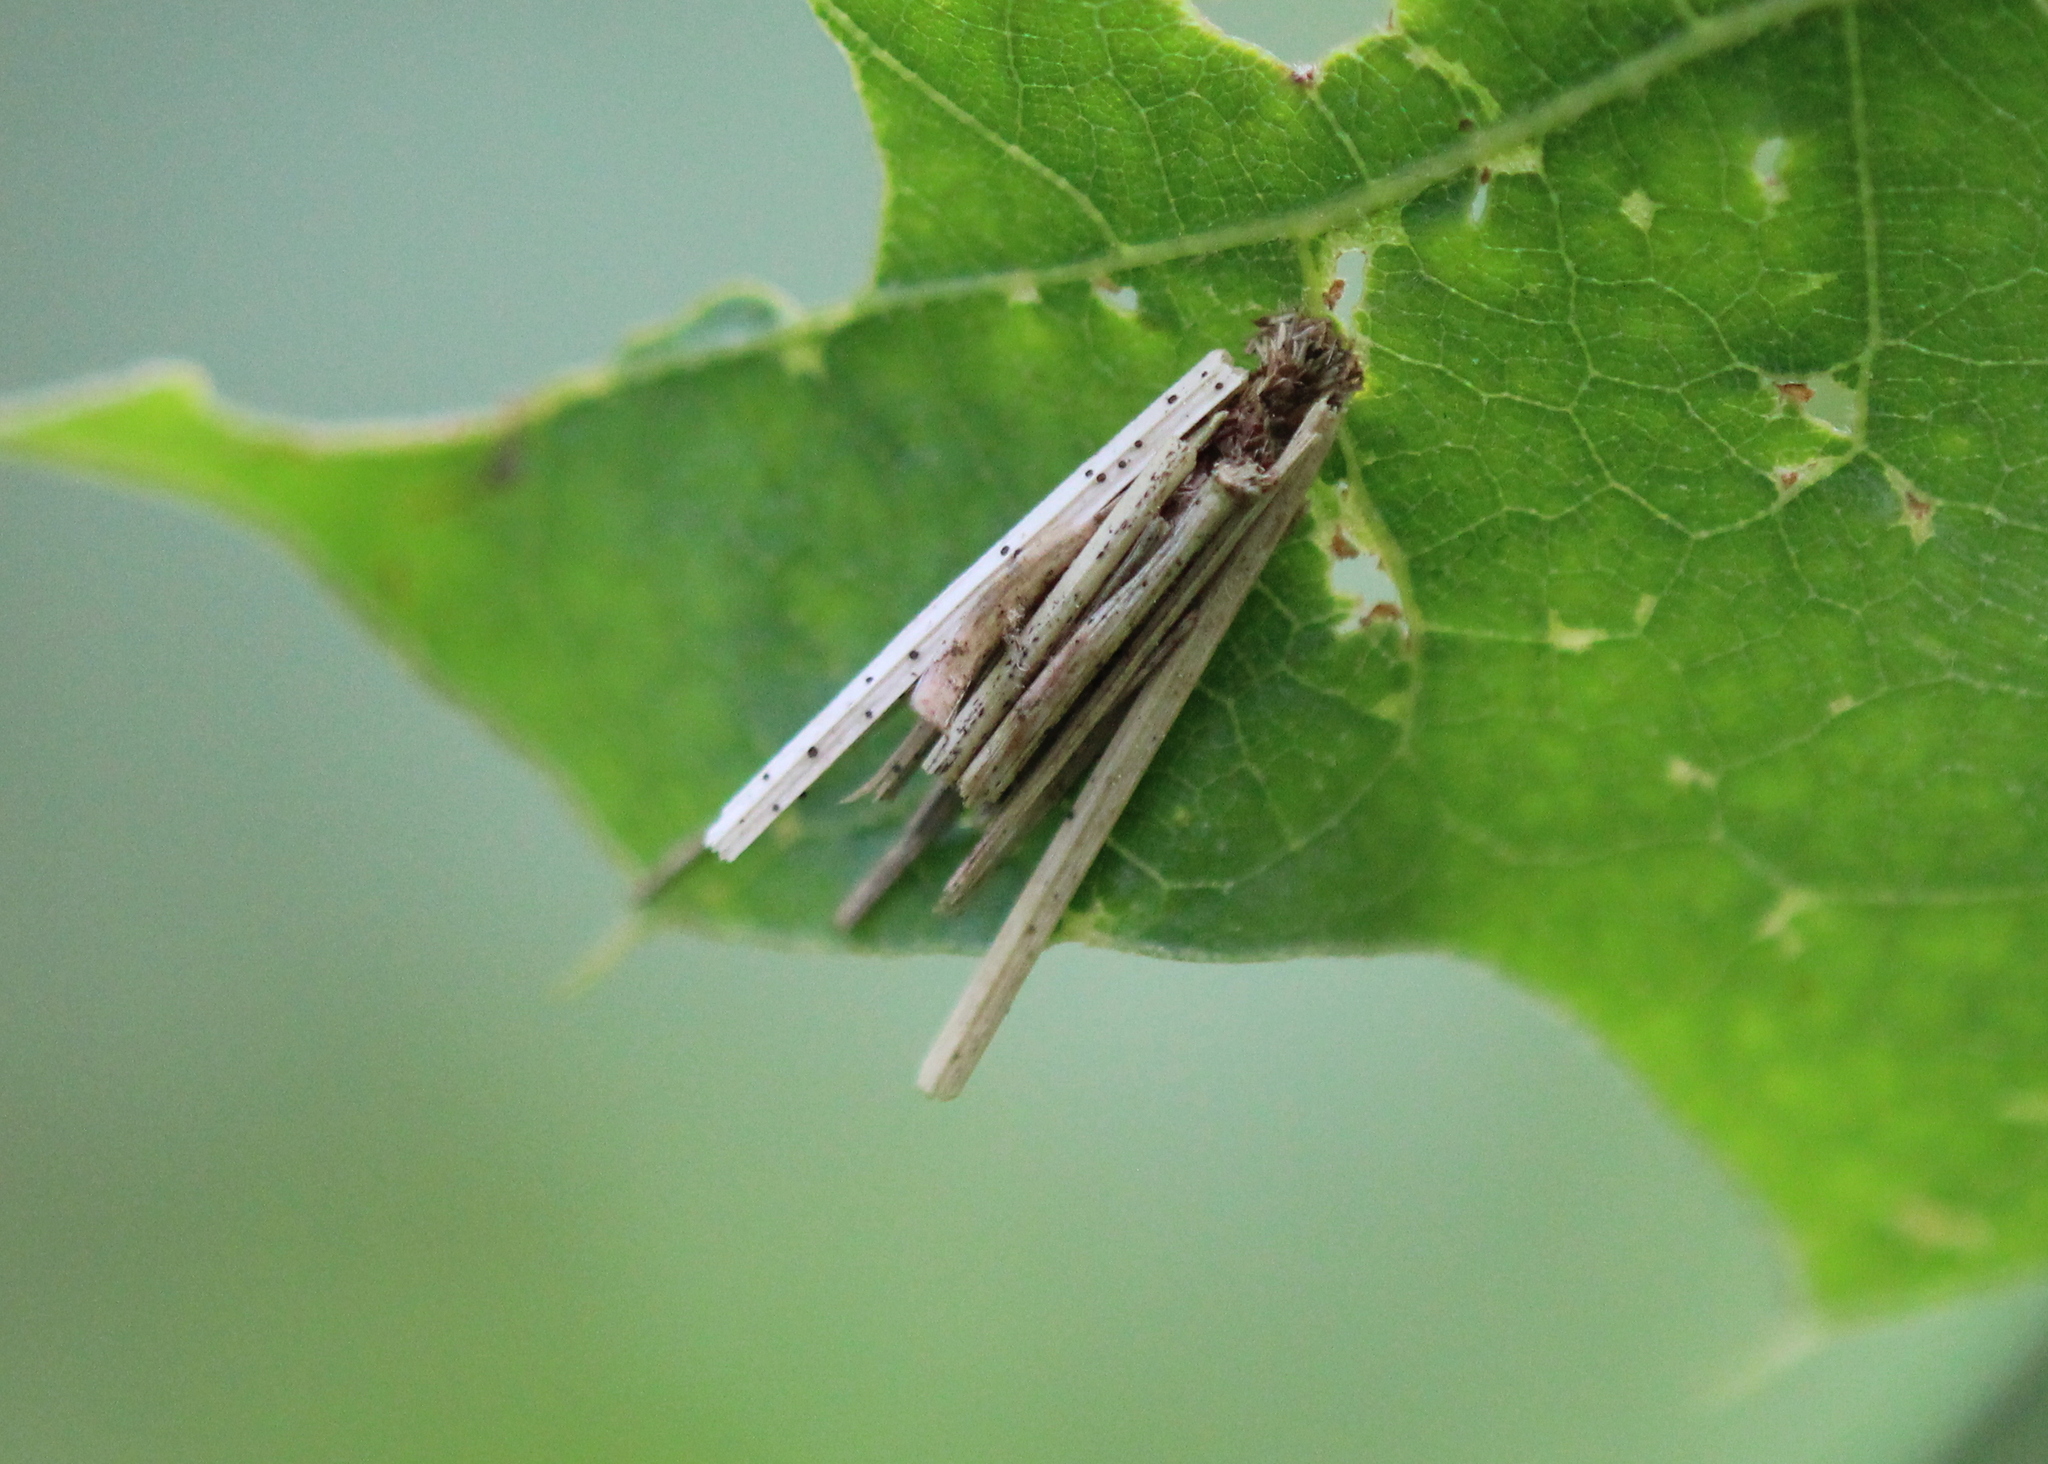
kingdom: Animalia
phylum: Arthropoda
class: Insecta
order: Lepidoptera
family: Psychidae
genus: Psyche
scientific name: Psyche casta
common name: Common sweep
